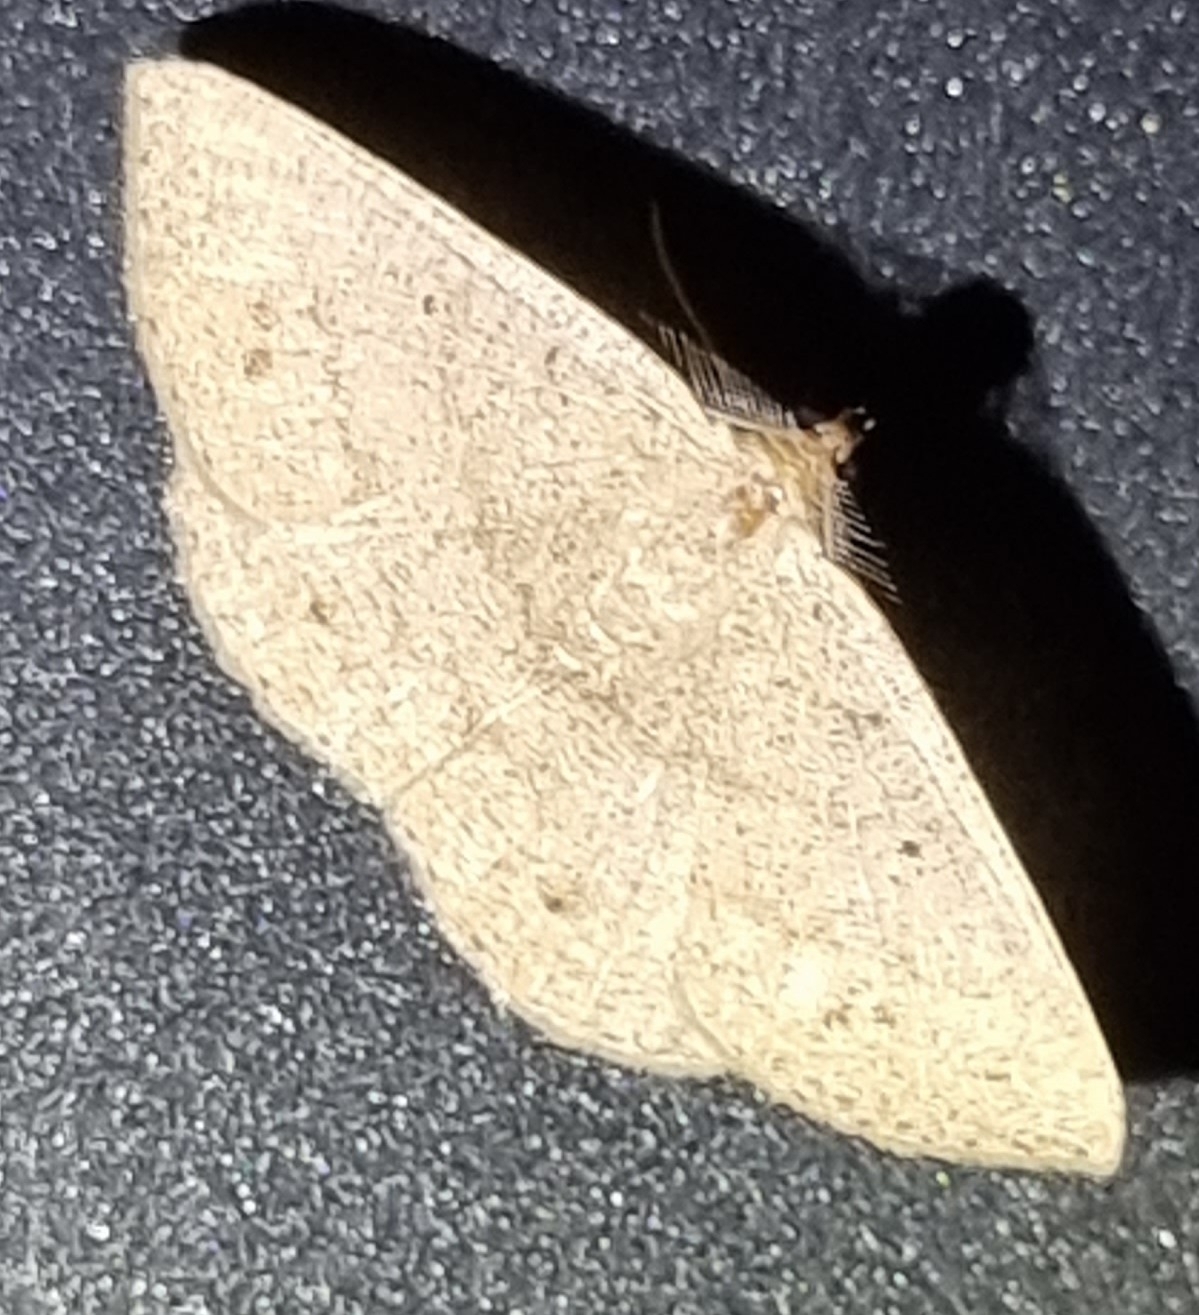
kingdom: Animalia
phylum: Arthropoda
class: Insecta
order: Lepidoptera
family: Geometridae
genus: Casbia
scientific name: Casbia rectaria
